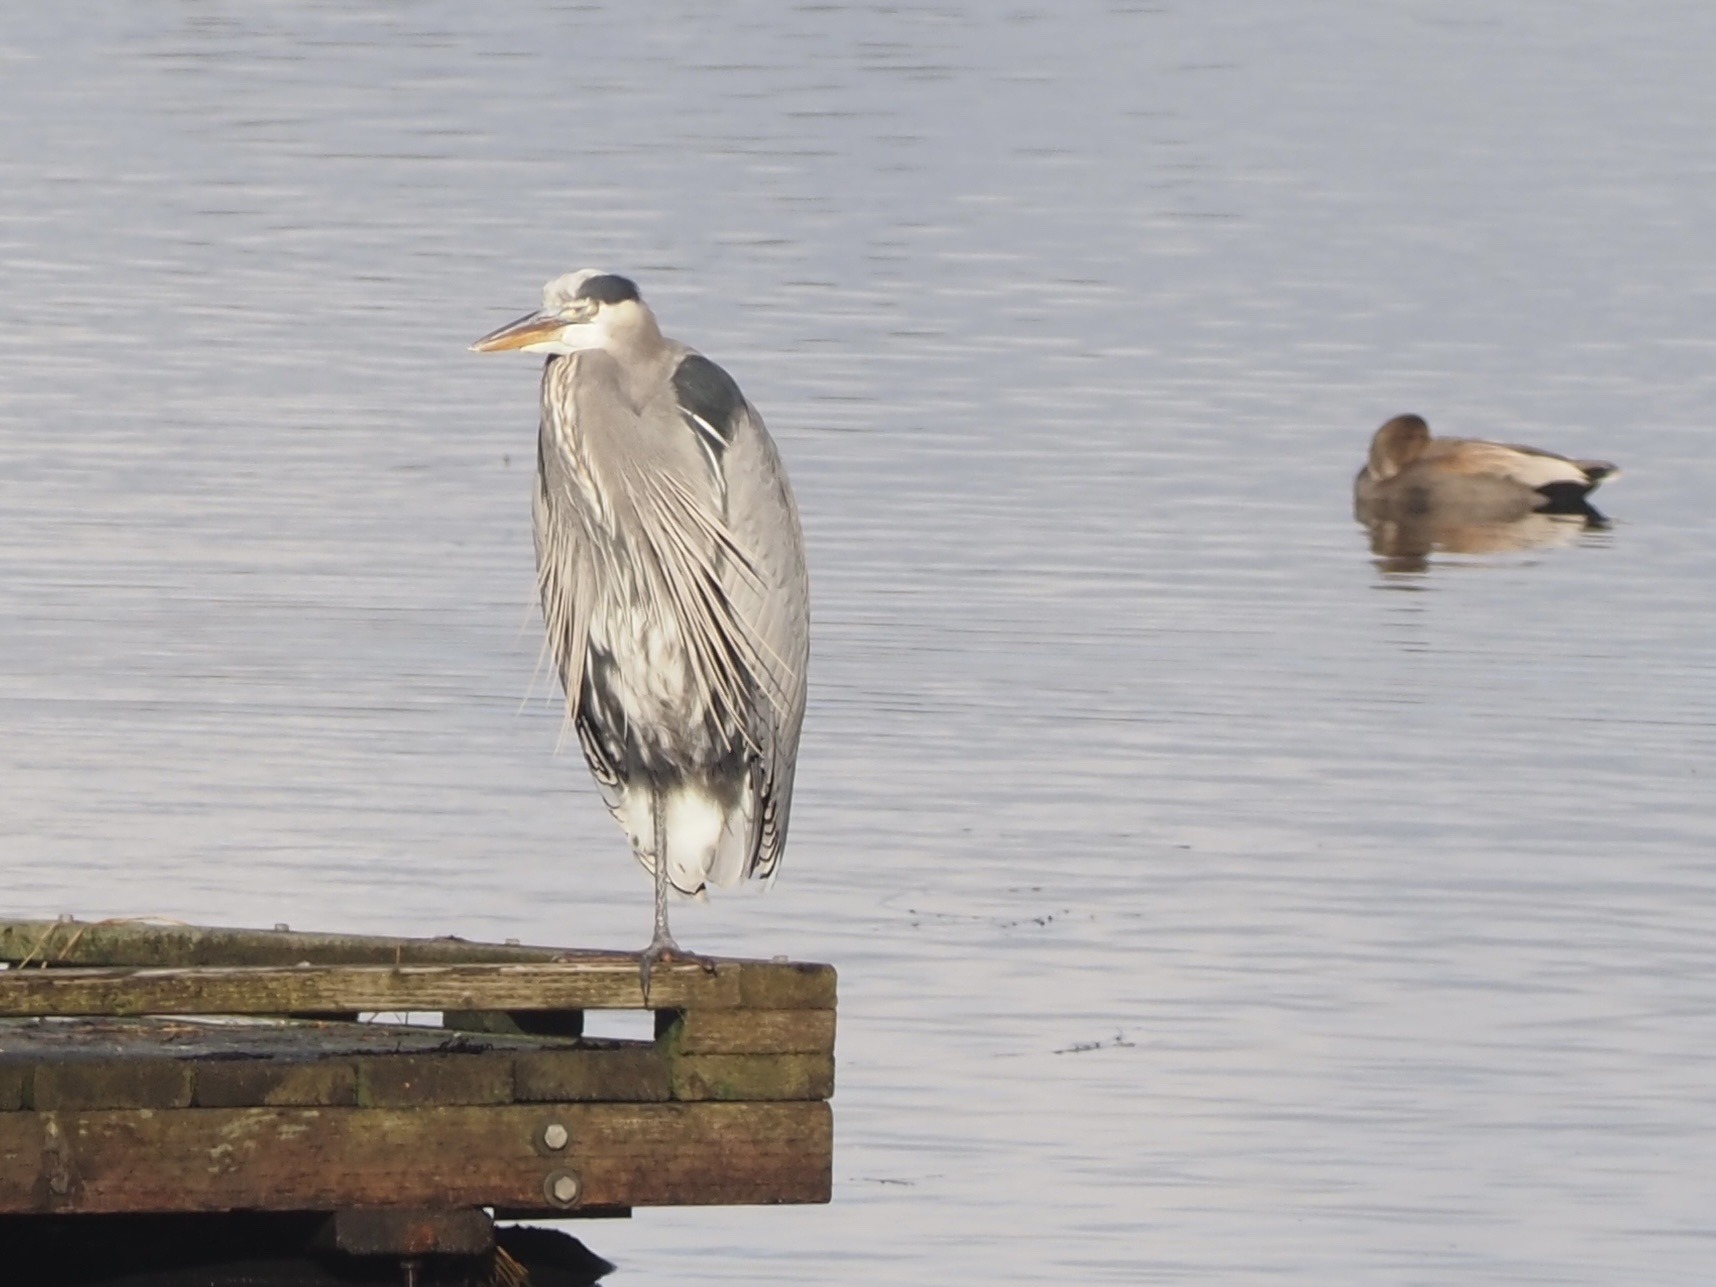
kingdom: Animalia
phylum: Chordata
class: Aves
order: Pelecaniformes
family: Ardeidae
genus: Ardea
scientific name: Ardea herodias
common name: Great blue heron
